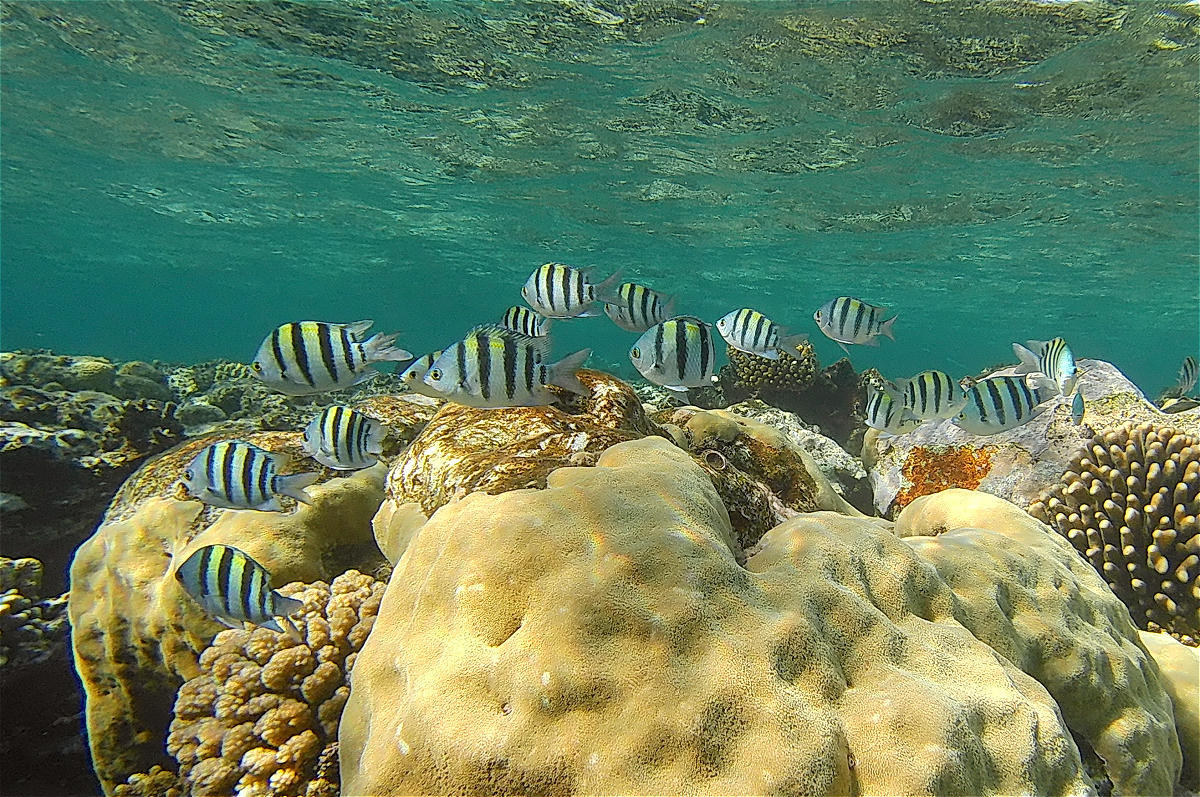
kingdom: Animalia
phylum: Chordata
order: Perciformes
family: Pomacentridae
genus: Abudefduf
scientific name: Abudefduf vaigiensis
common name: Indo-pacific sergeant
